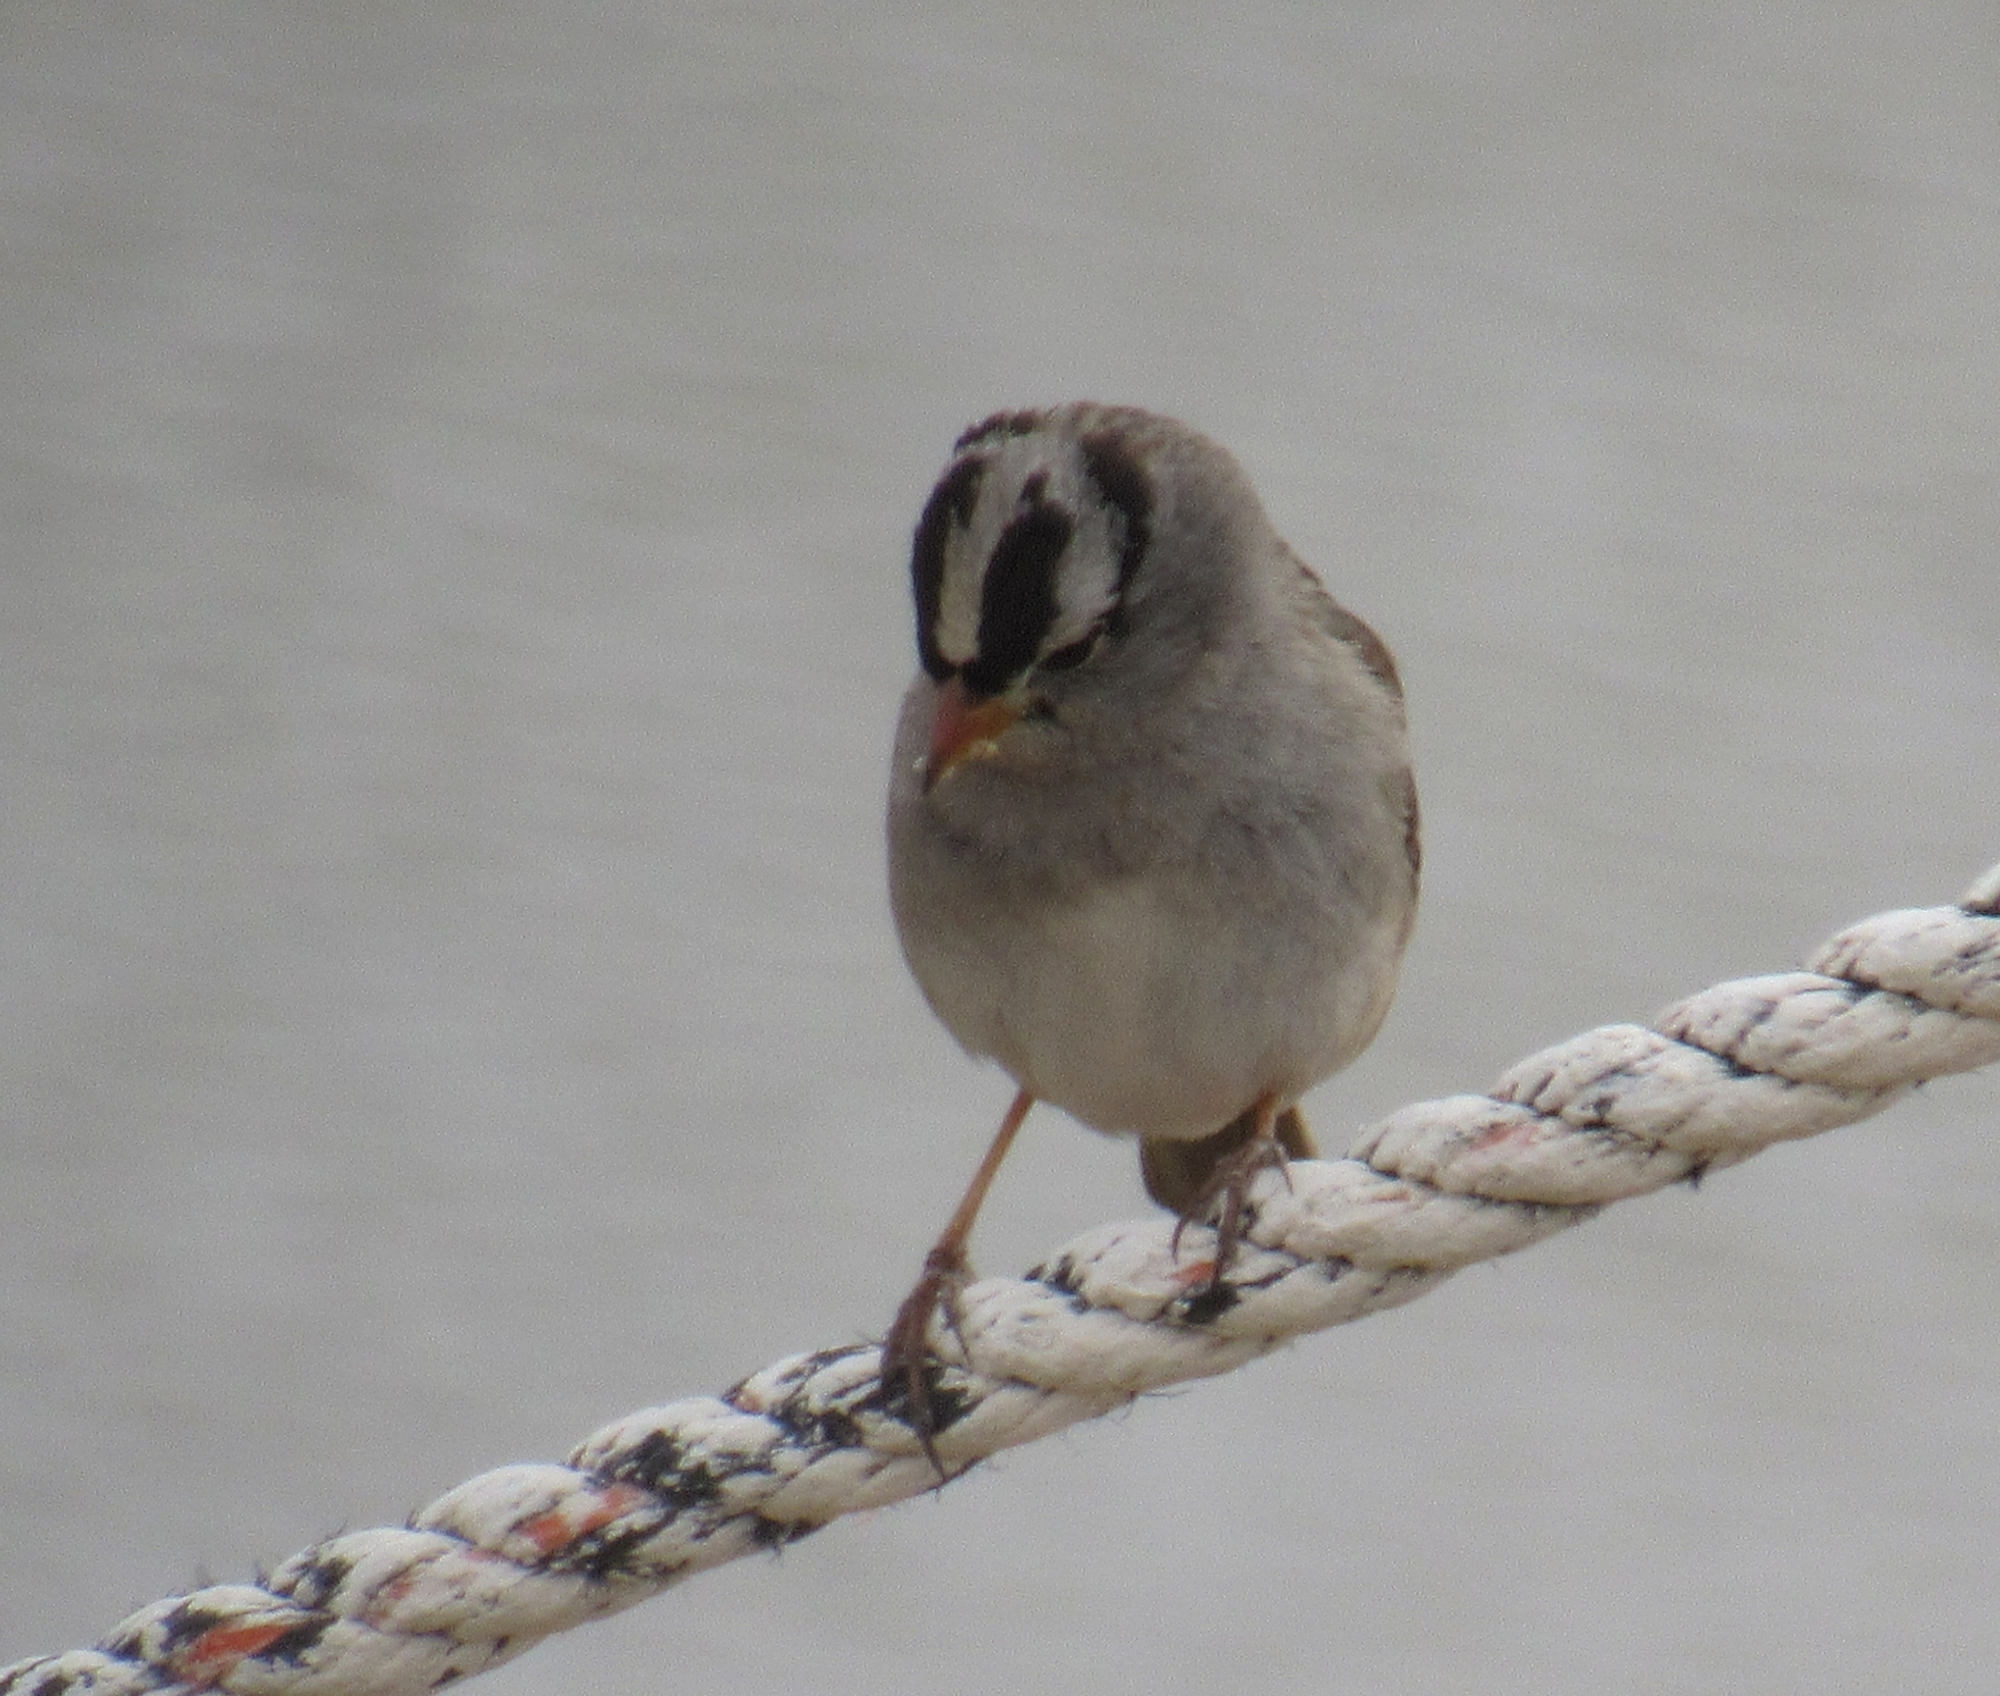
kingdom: Animalia
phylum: Chordata
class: Aves
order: Passeriformes
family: Passerellidae
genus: Zonotrichia
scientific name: Zonotrichia leucophrys
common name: White-crowned sparrow
